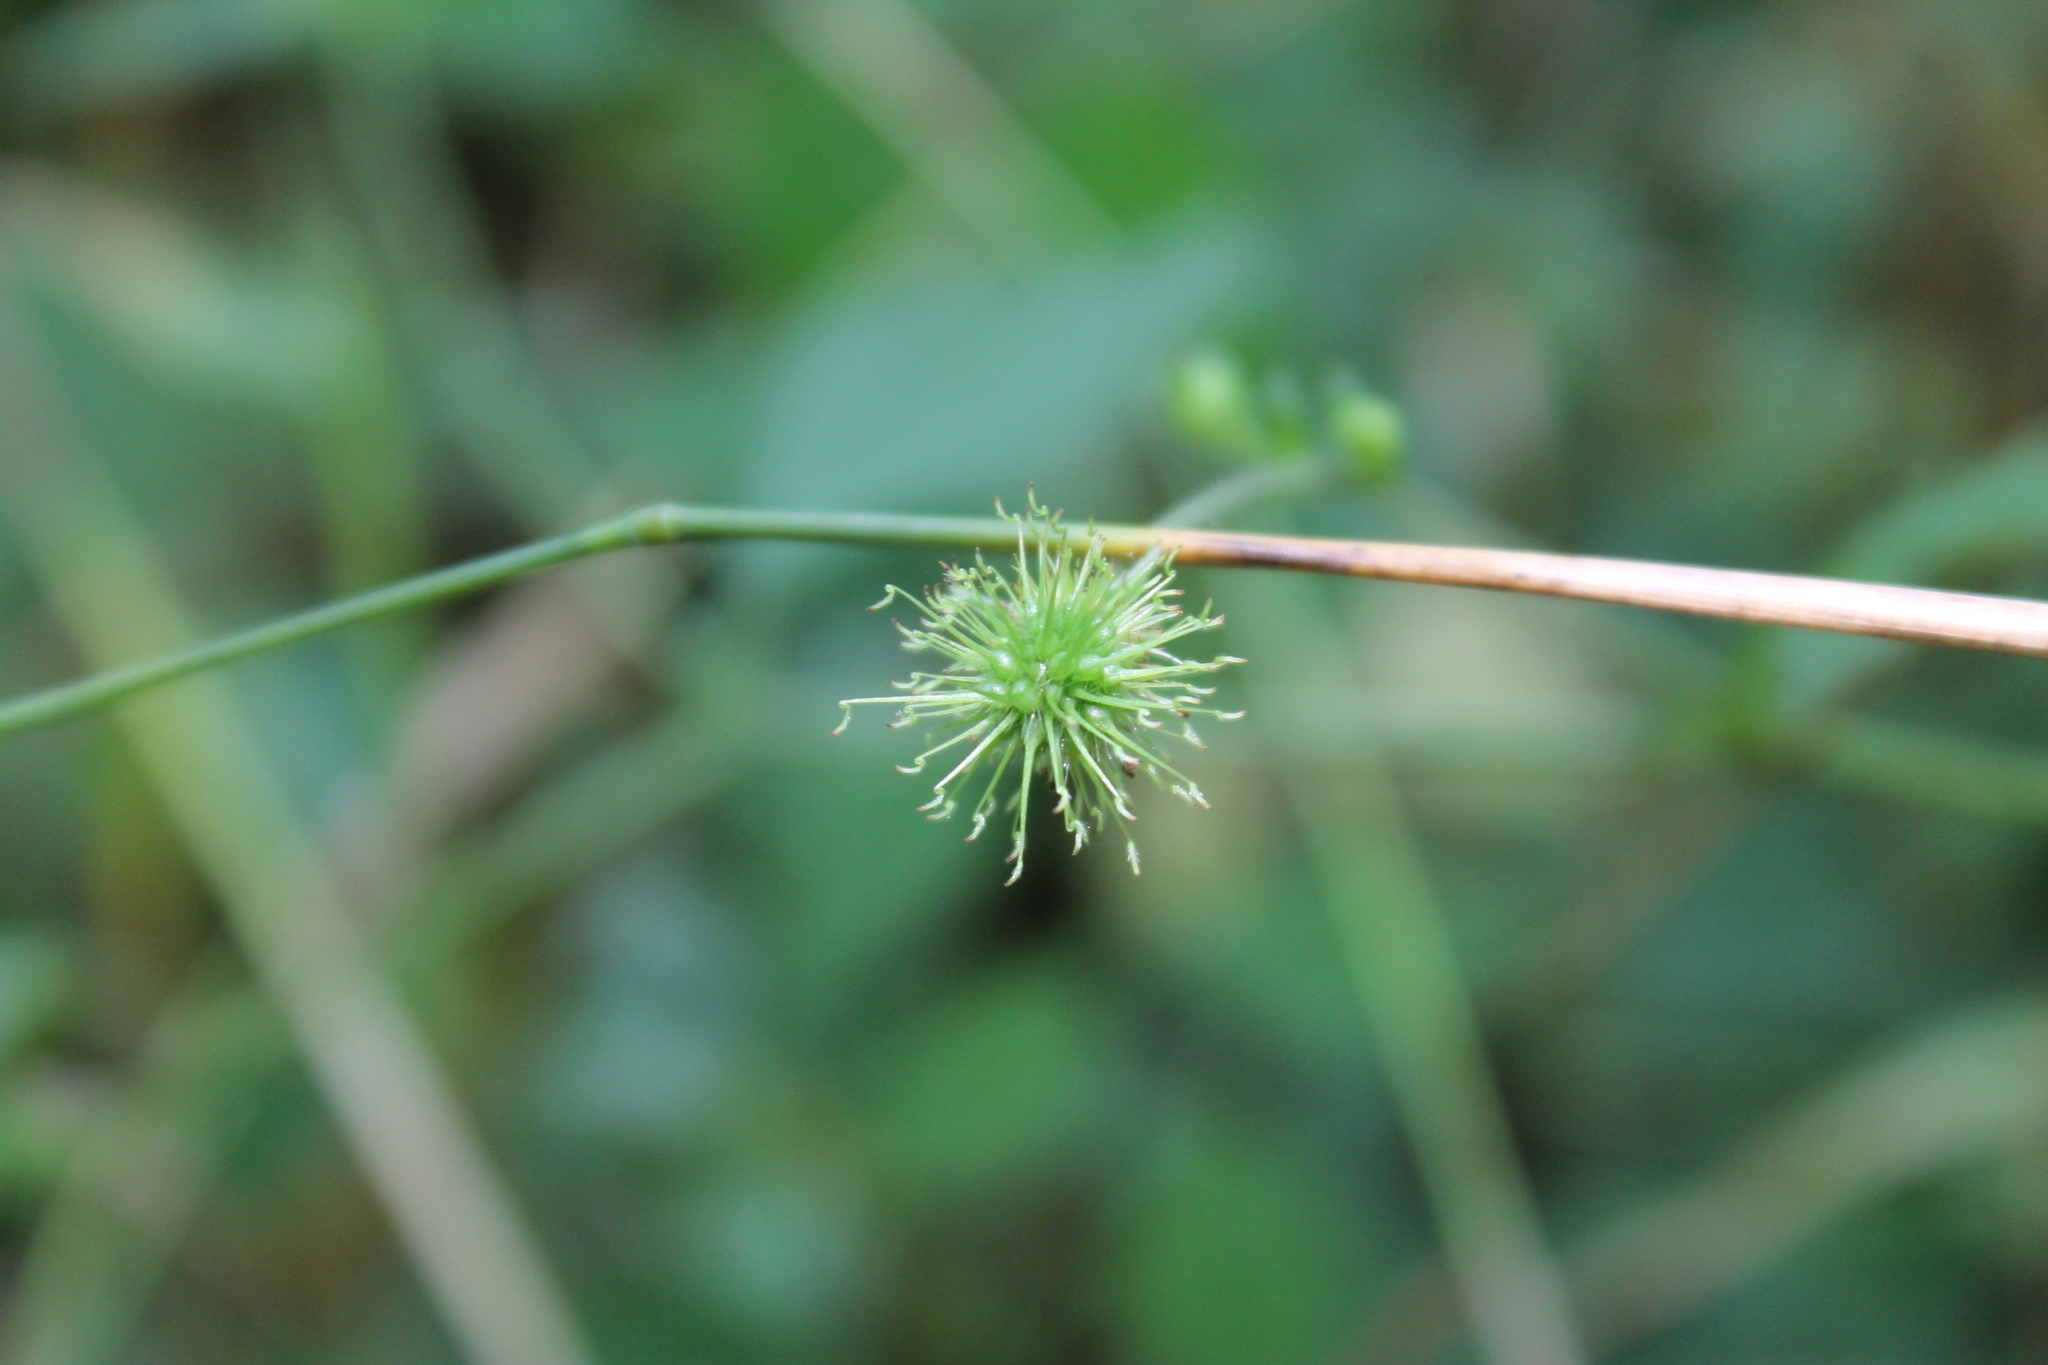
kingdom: Plantae
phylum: Tracheophyta
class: Magnoliopsida
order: Rosales
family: Rosaceae
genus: Geum
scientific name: Geum canadense
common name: White avens
